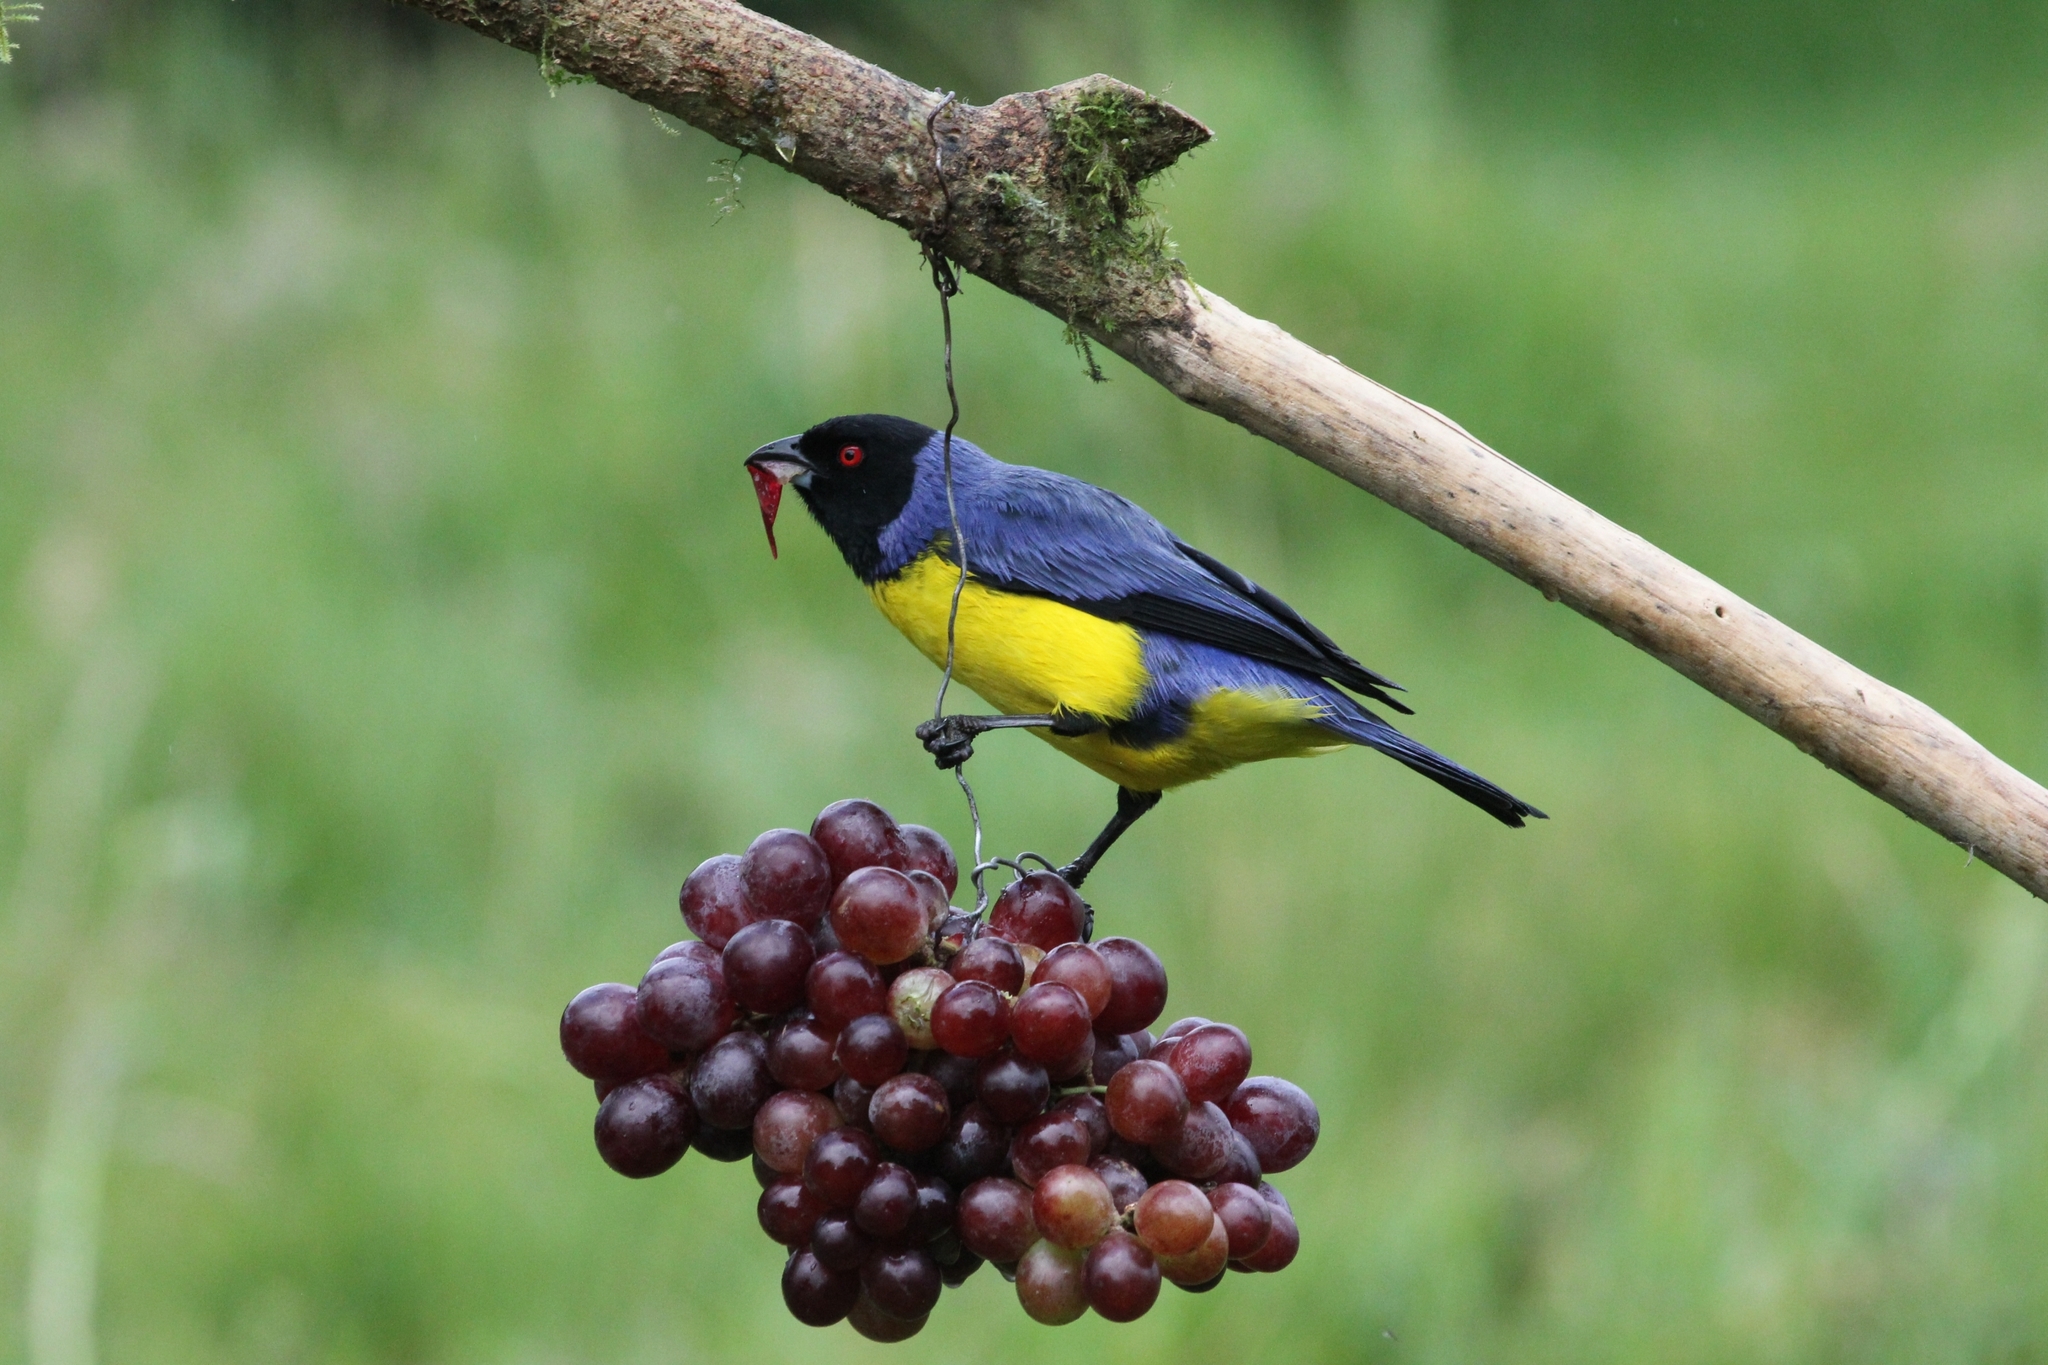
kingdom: Animalia
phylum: Chordata
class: Aves
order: Passeriformes
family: Thraupidae
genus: Buthraupis
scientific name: Buthraupis montana
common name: Hooded mountain tanager
